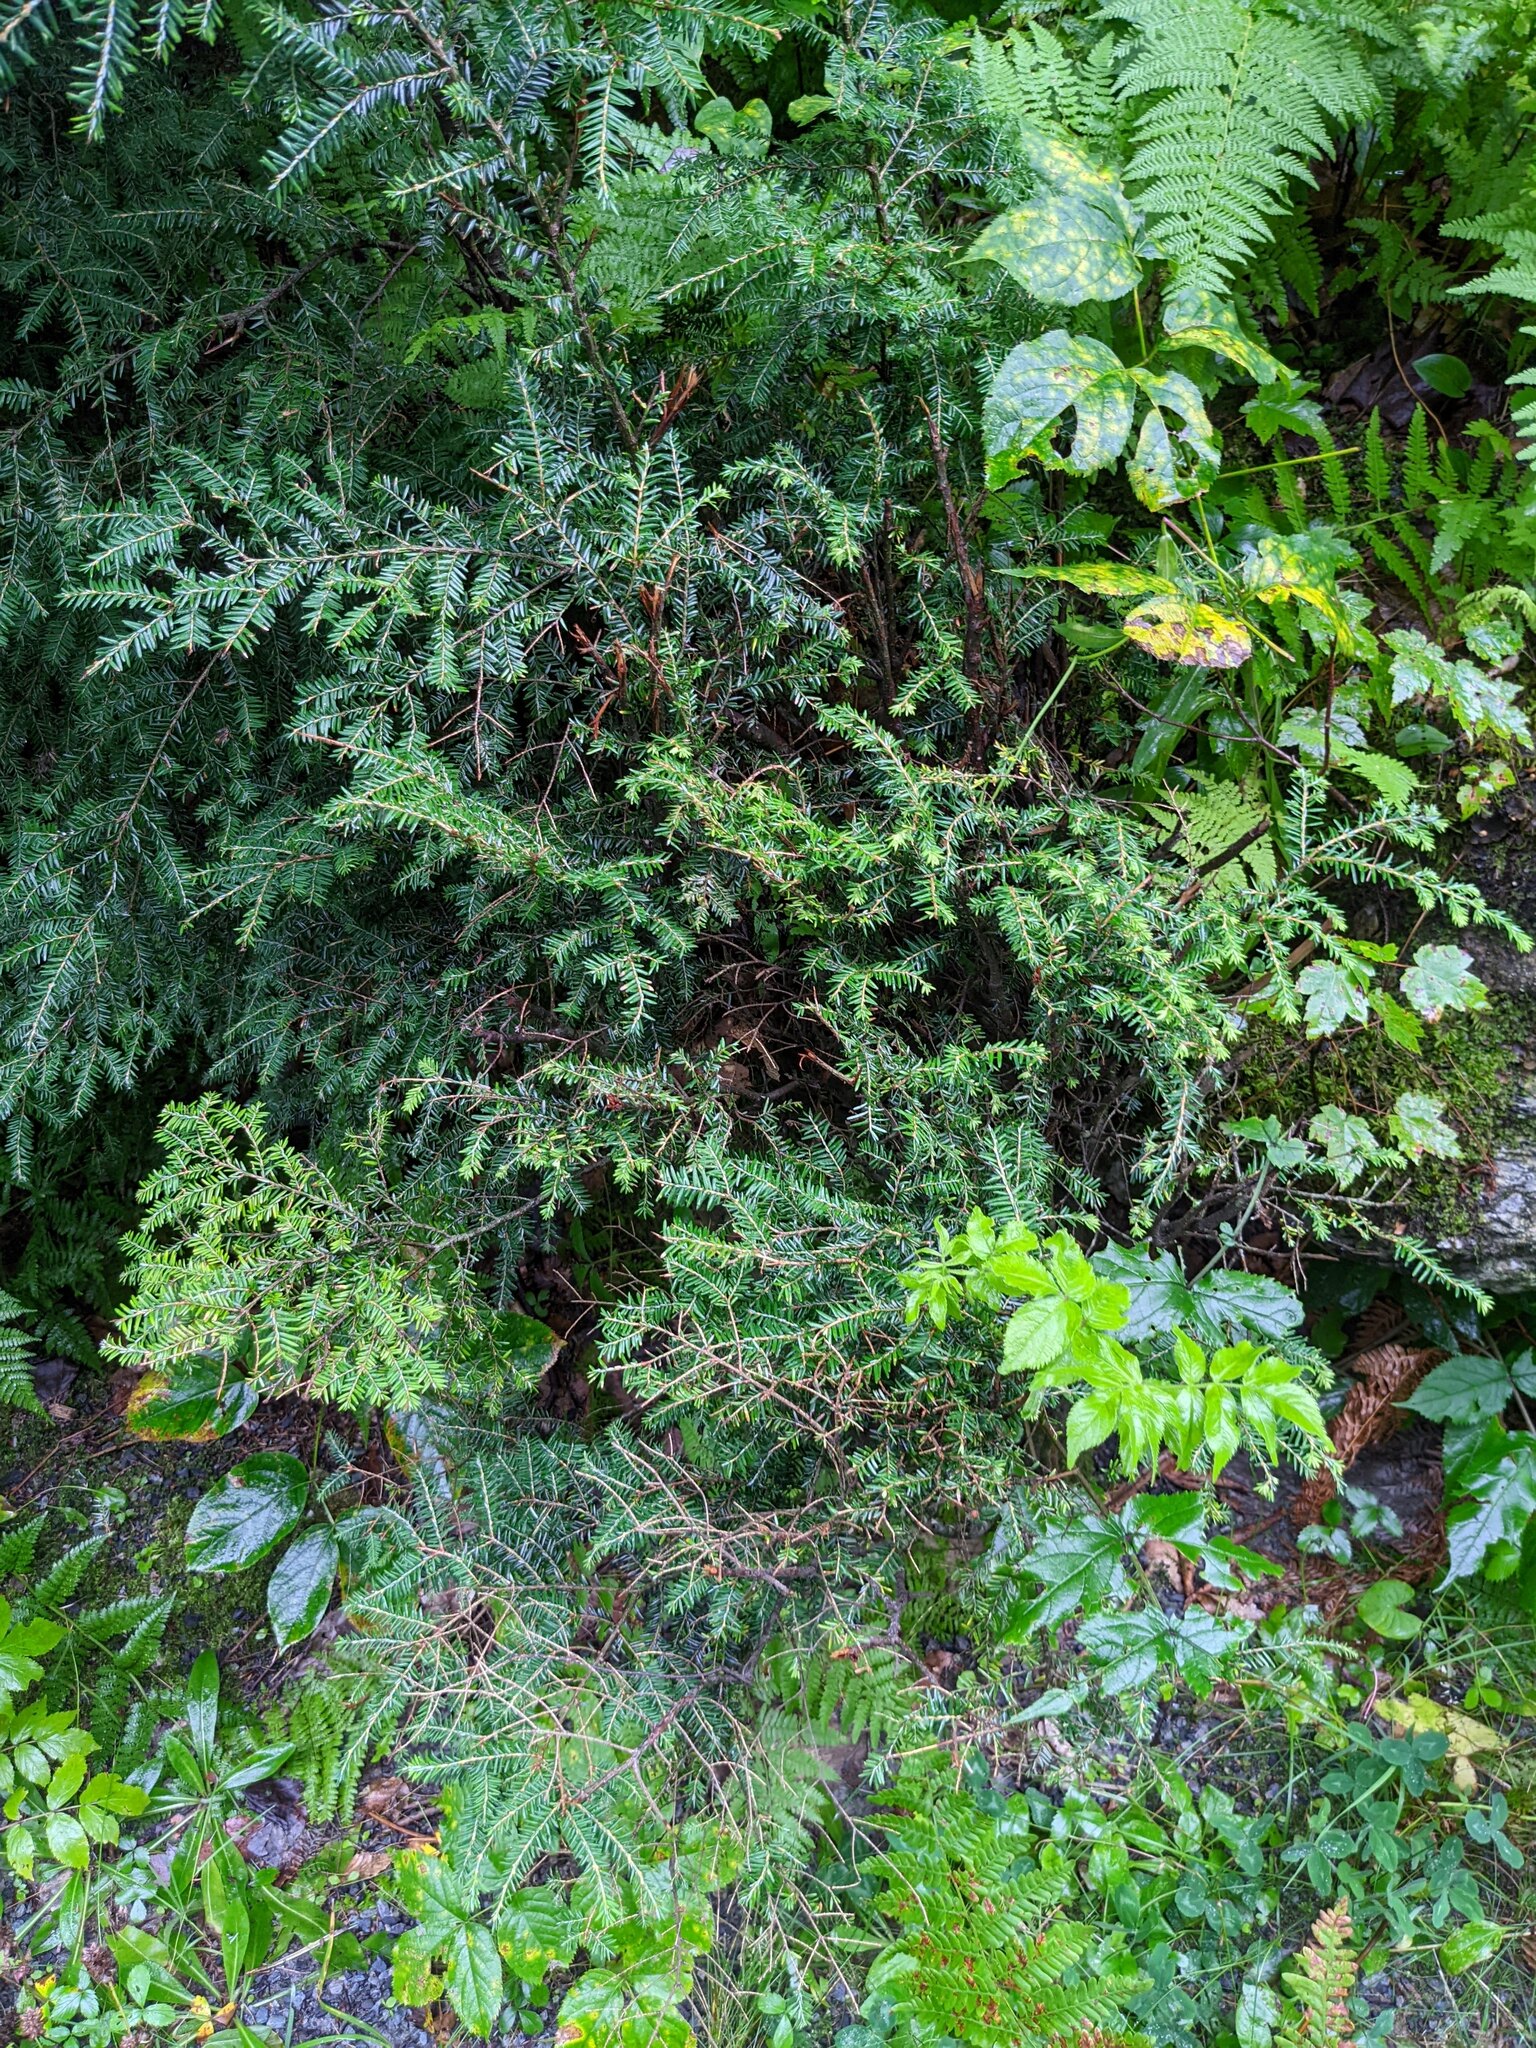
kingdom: Plantae
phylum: Tracheophyta
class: Pinopsida
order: Pinales
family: Pinaceae
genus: Tsuga
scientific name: Tsuga canadensis
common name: Eastern hemlock
